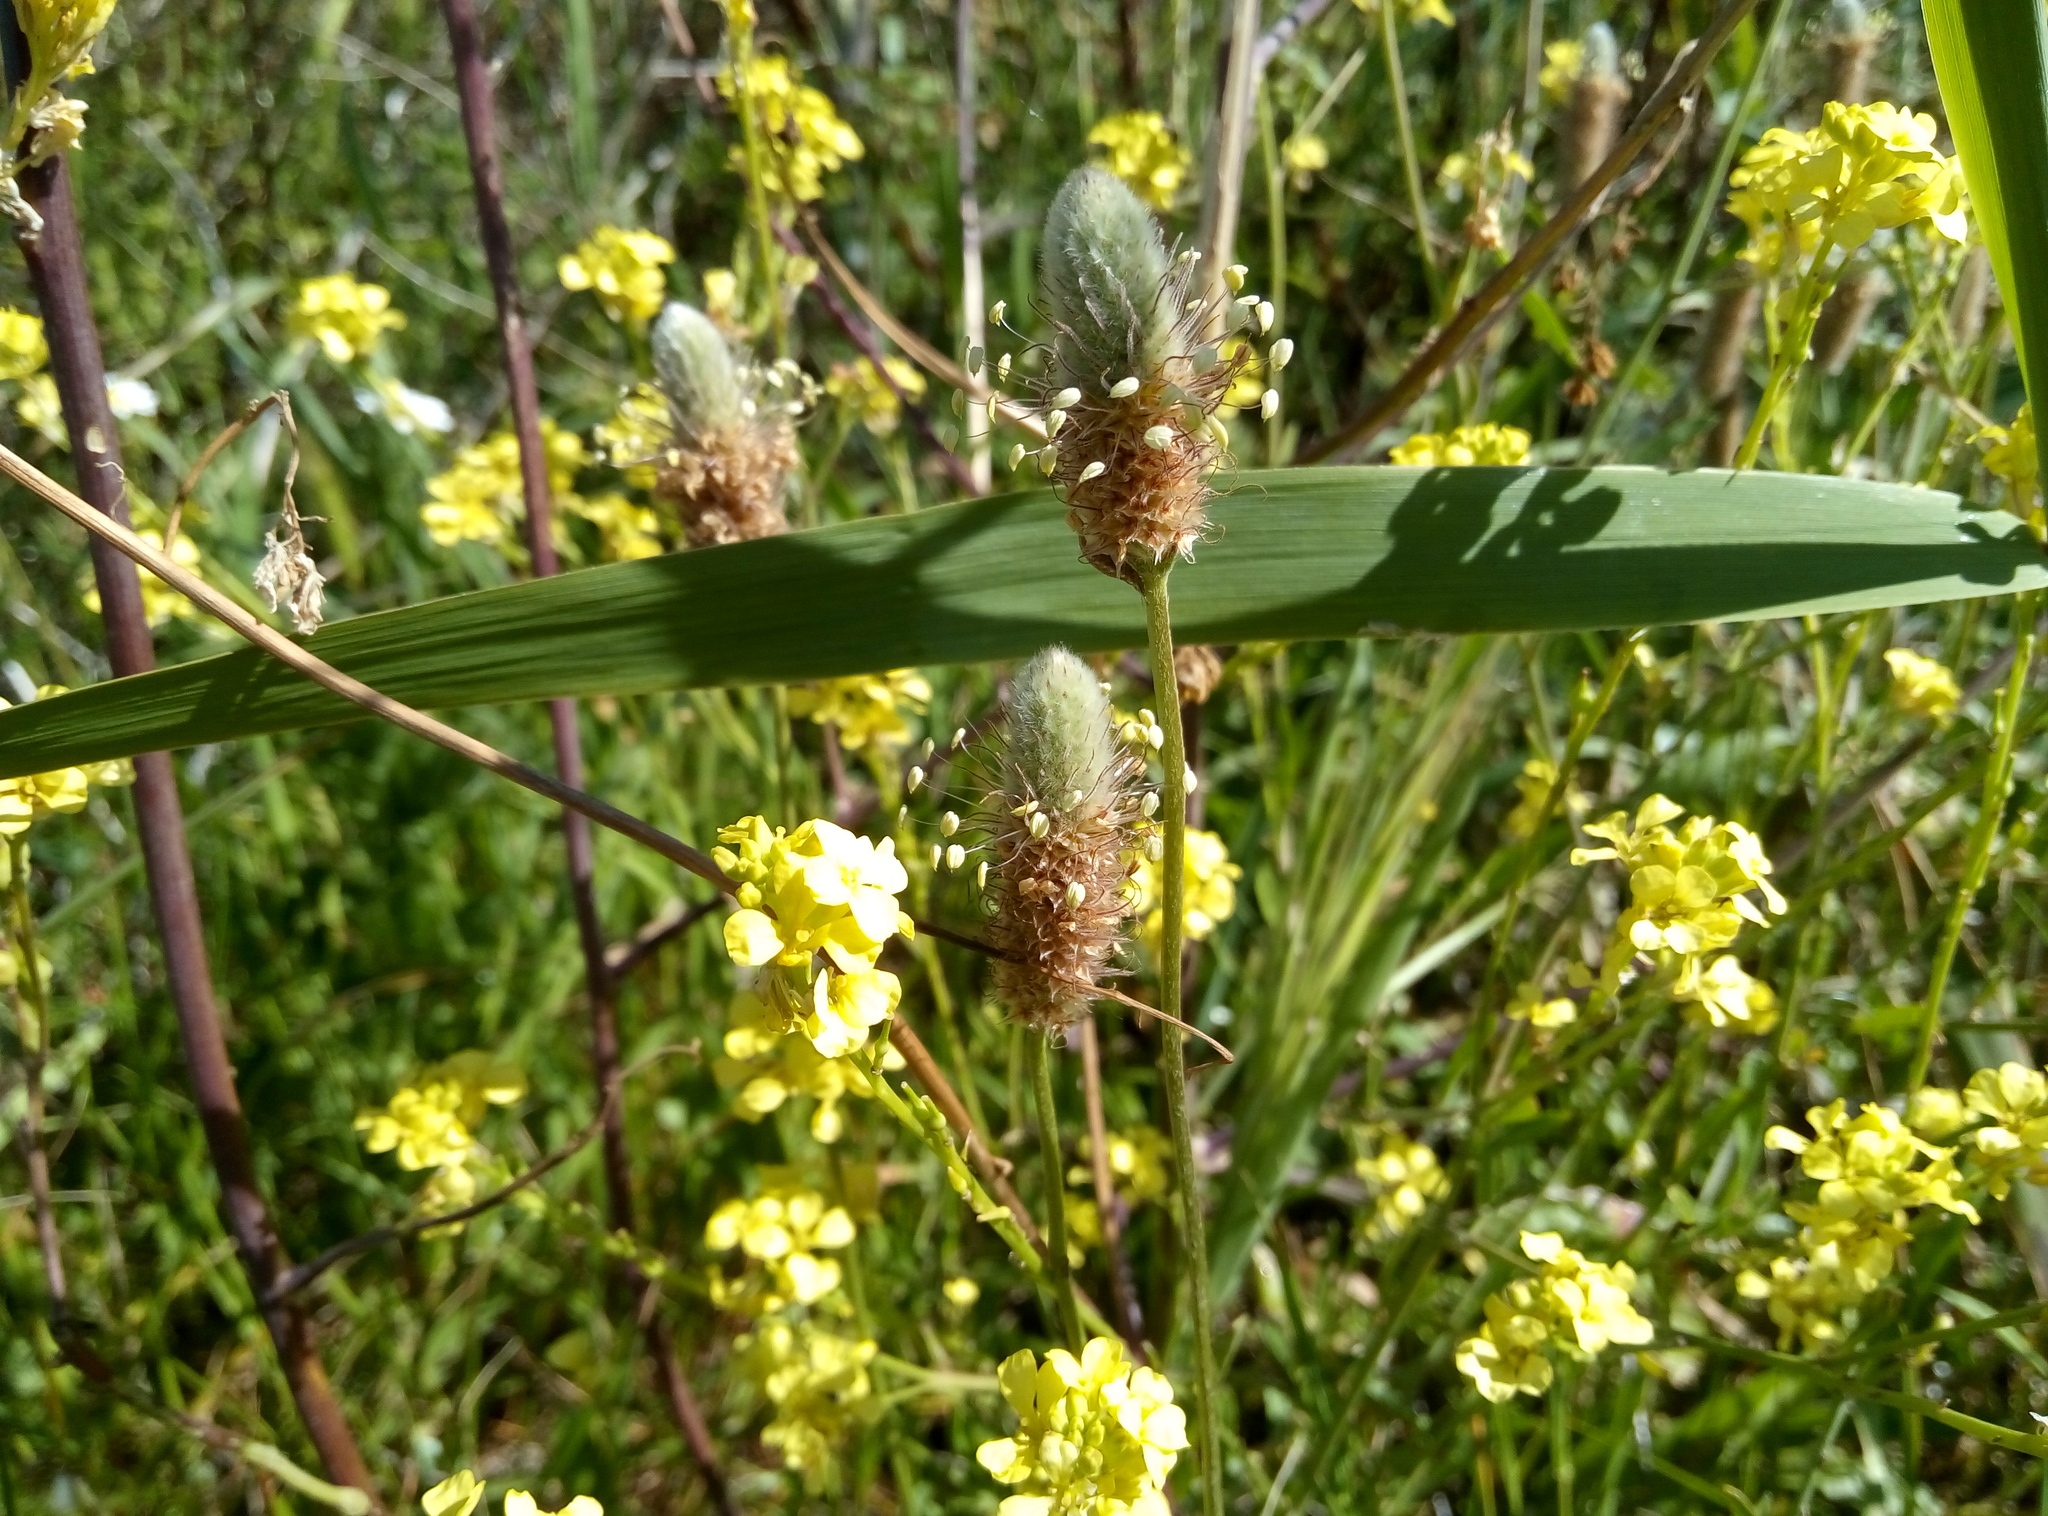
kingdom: Plantae
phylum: Tracheophyta
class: Magnoliopsida
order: Fabales
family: Fabaceae
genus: Trifolium
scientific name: Trifolium arvense
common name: Hare's-foot clover
